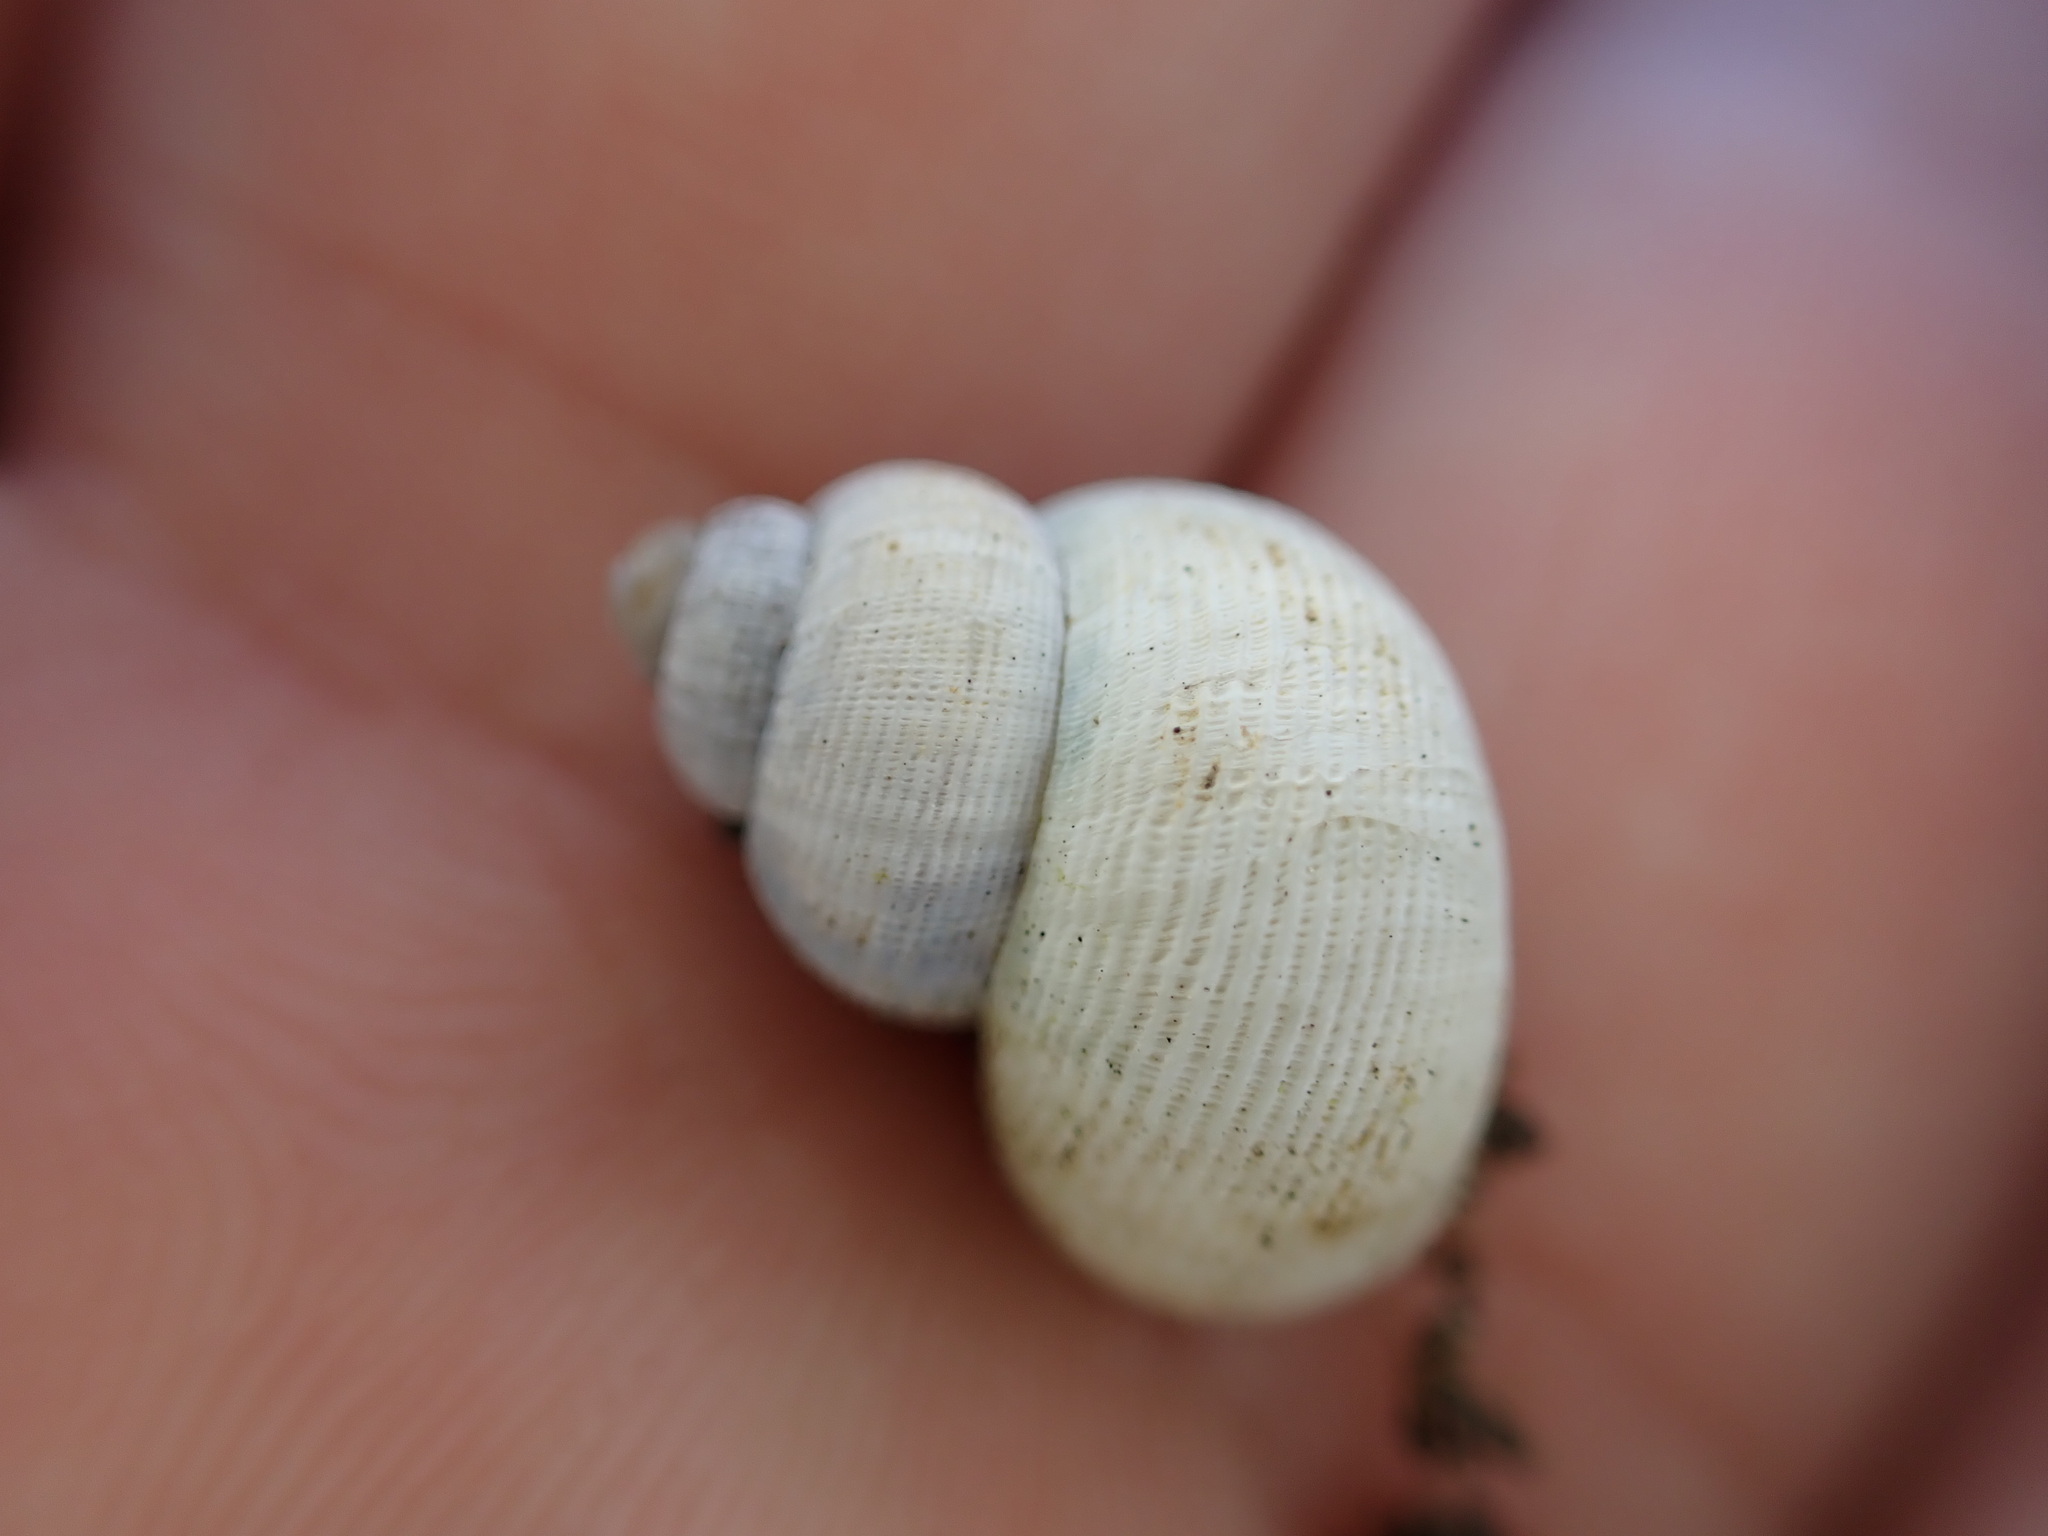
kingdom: Animalia
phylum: Mollusca
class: Gastropoda
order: Littorinimorpha
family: Pomatiidae
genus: Pomatias
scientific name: Pomatias elegans
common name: Red-mouthed snail
